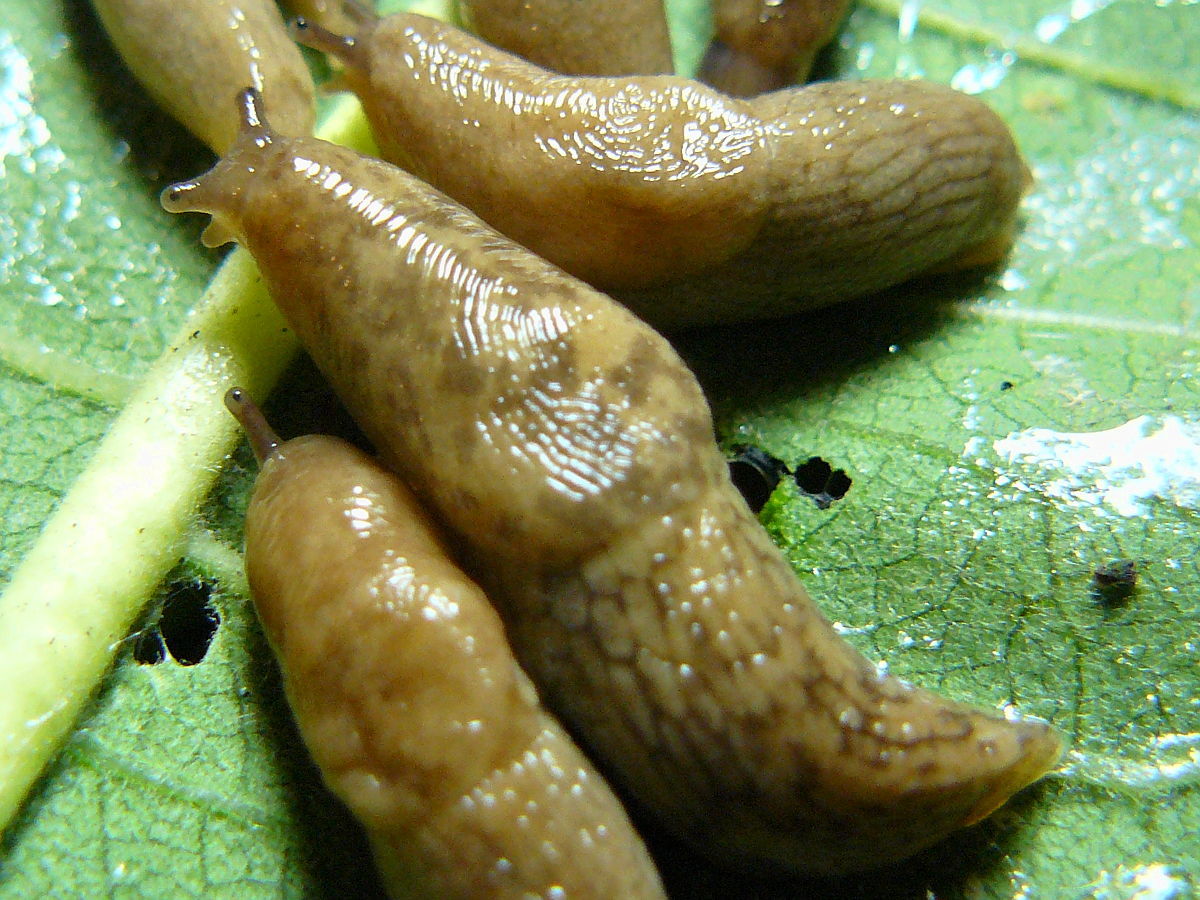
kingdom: Animalia
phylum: Mollusca
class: Gastropoda
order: Stylommatophora
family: Agriolimacidae
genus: Deroceras
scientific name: Deroceras reticulatum
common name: Gray field slug
